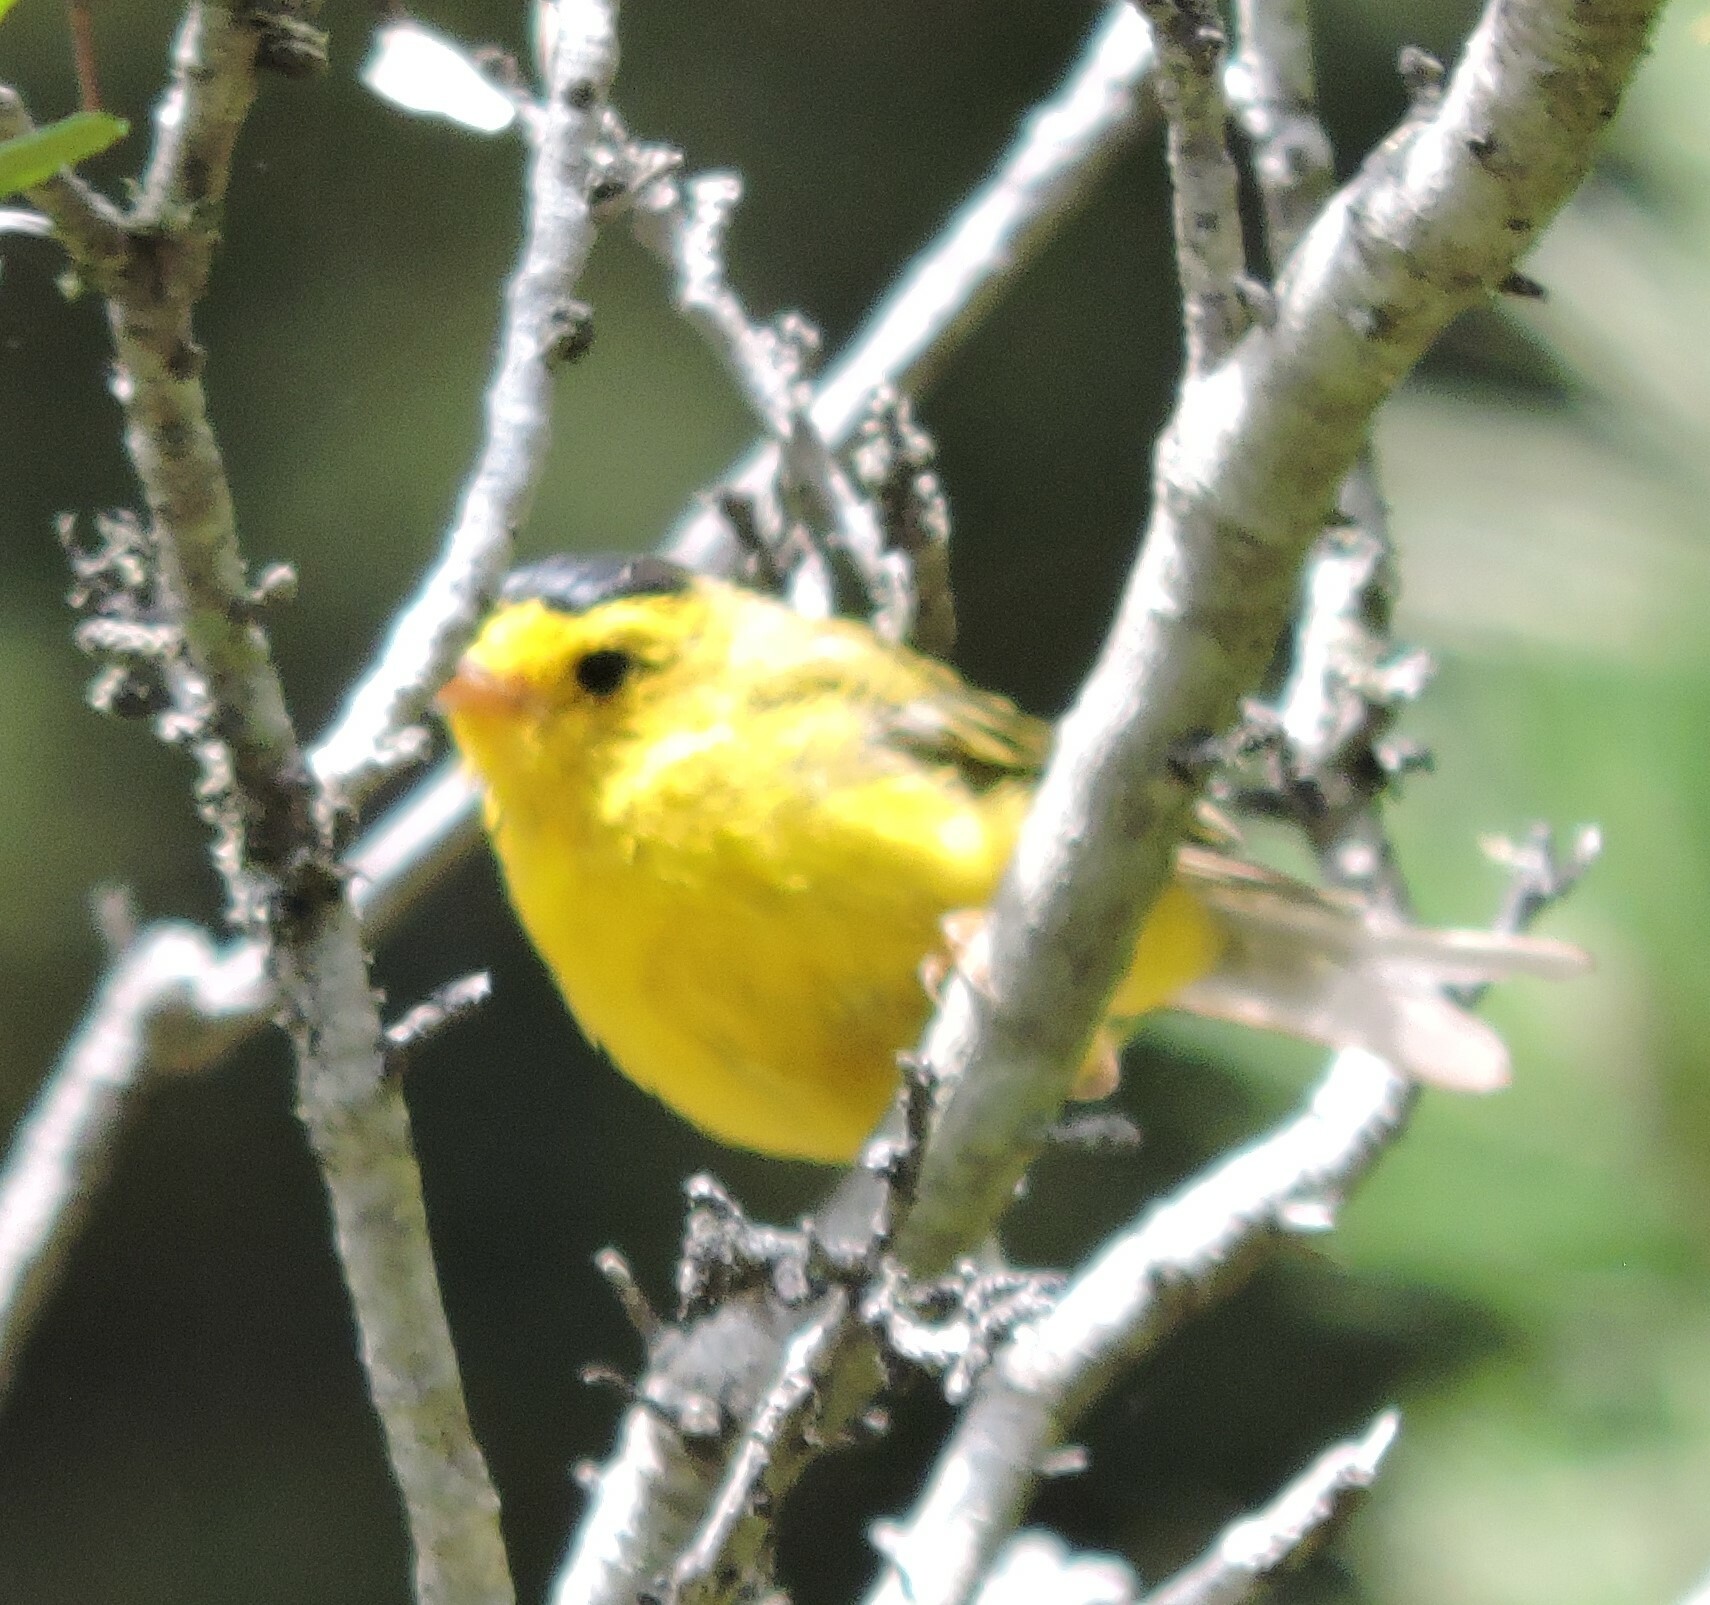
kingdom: Animalia
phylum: Chordata
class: Aves
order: Passeriformes
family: Parulidae
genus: Cardellina
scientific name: Cardellina pusilla
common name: Wilson's warbler
